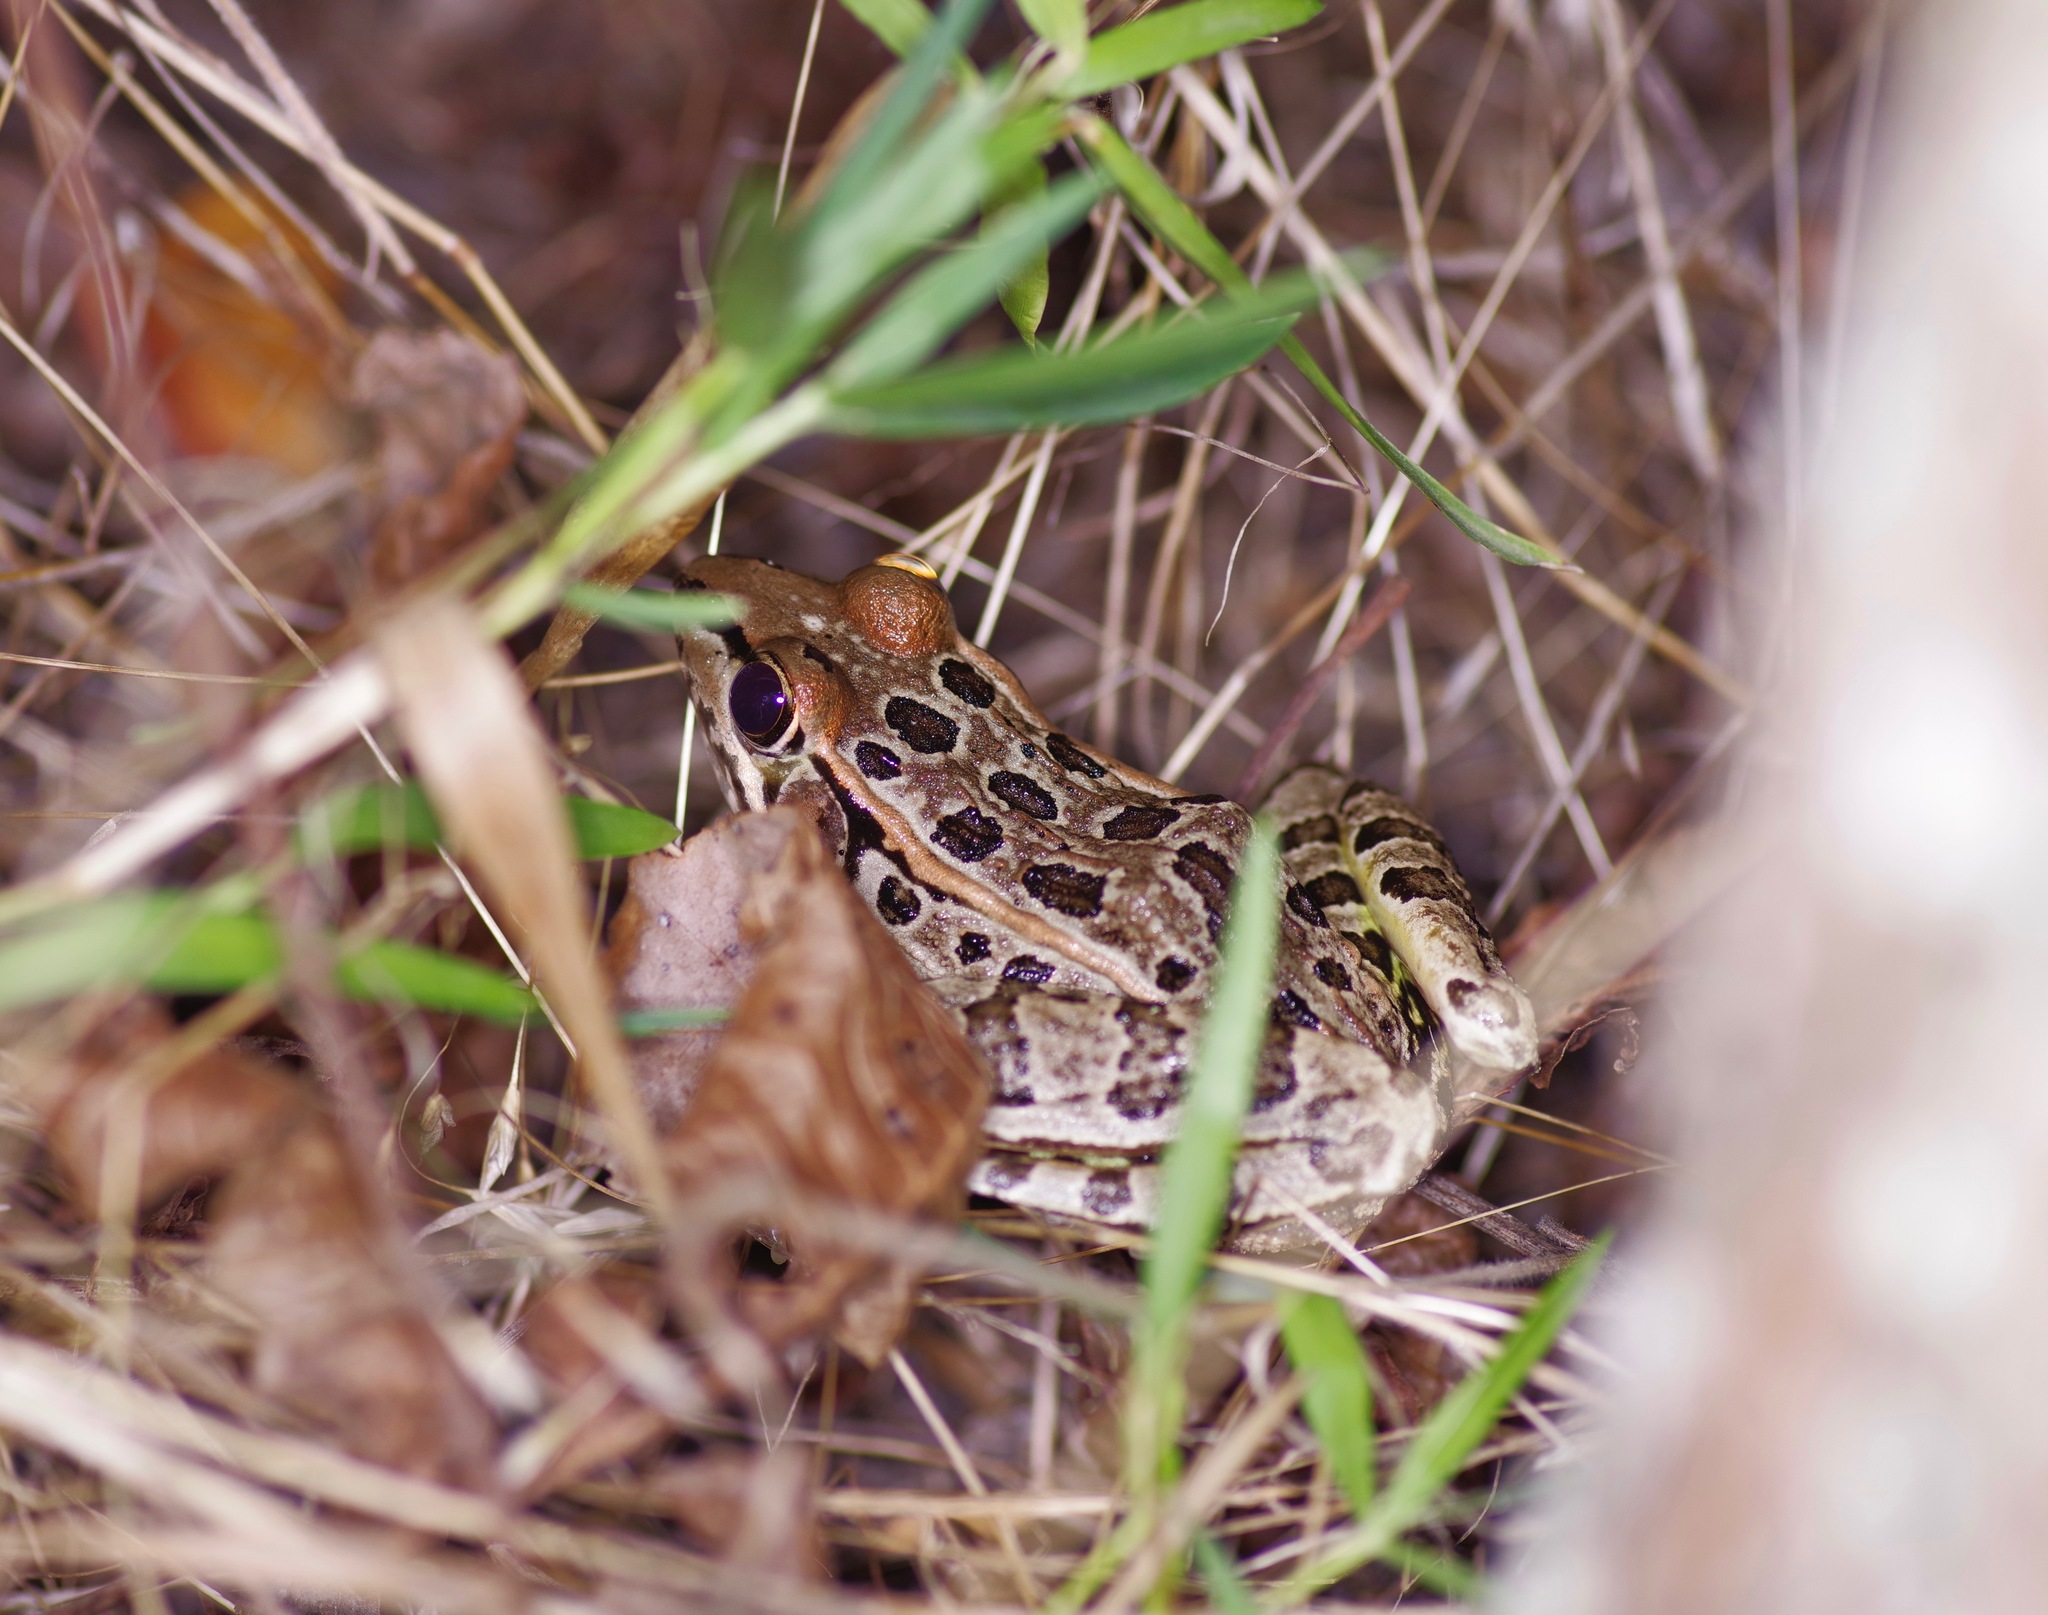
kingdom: Animalia
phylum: Chordata
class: Amphibia
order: Anura
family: Ranidae
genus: Lithobates
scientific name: Lithobates berlandieri
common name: Rio grande leopard frog
